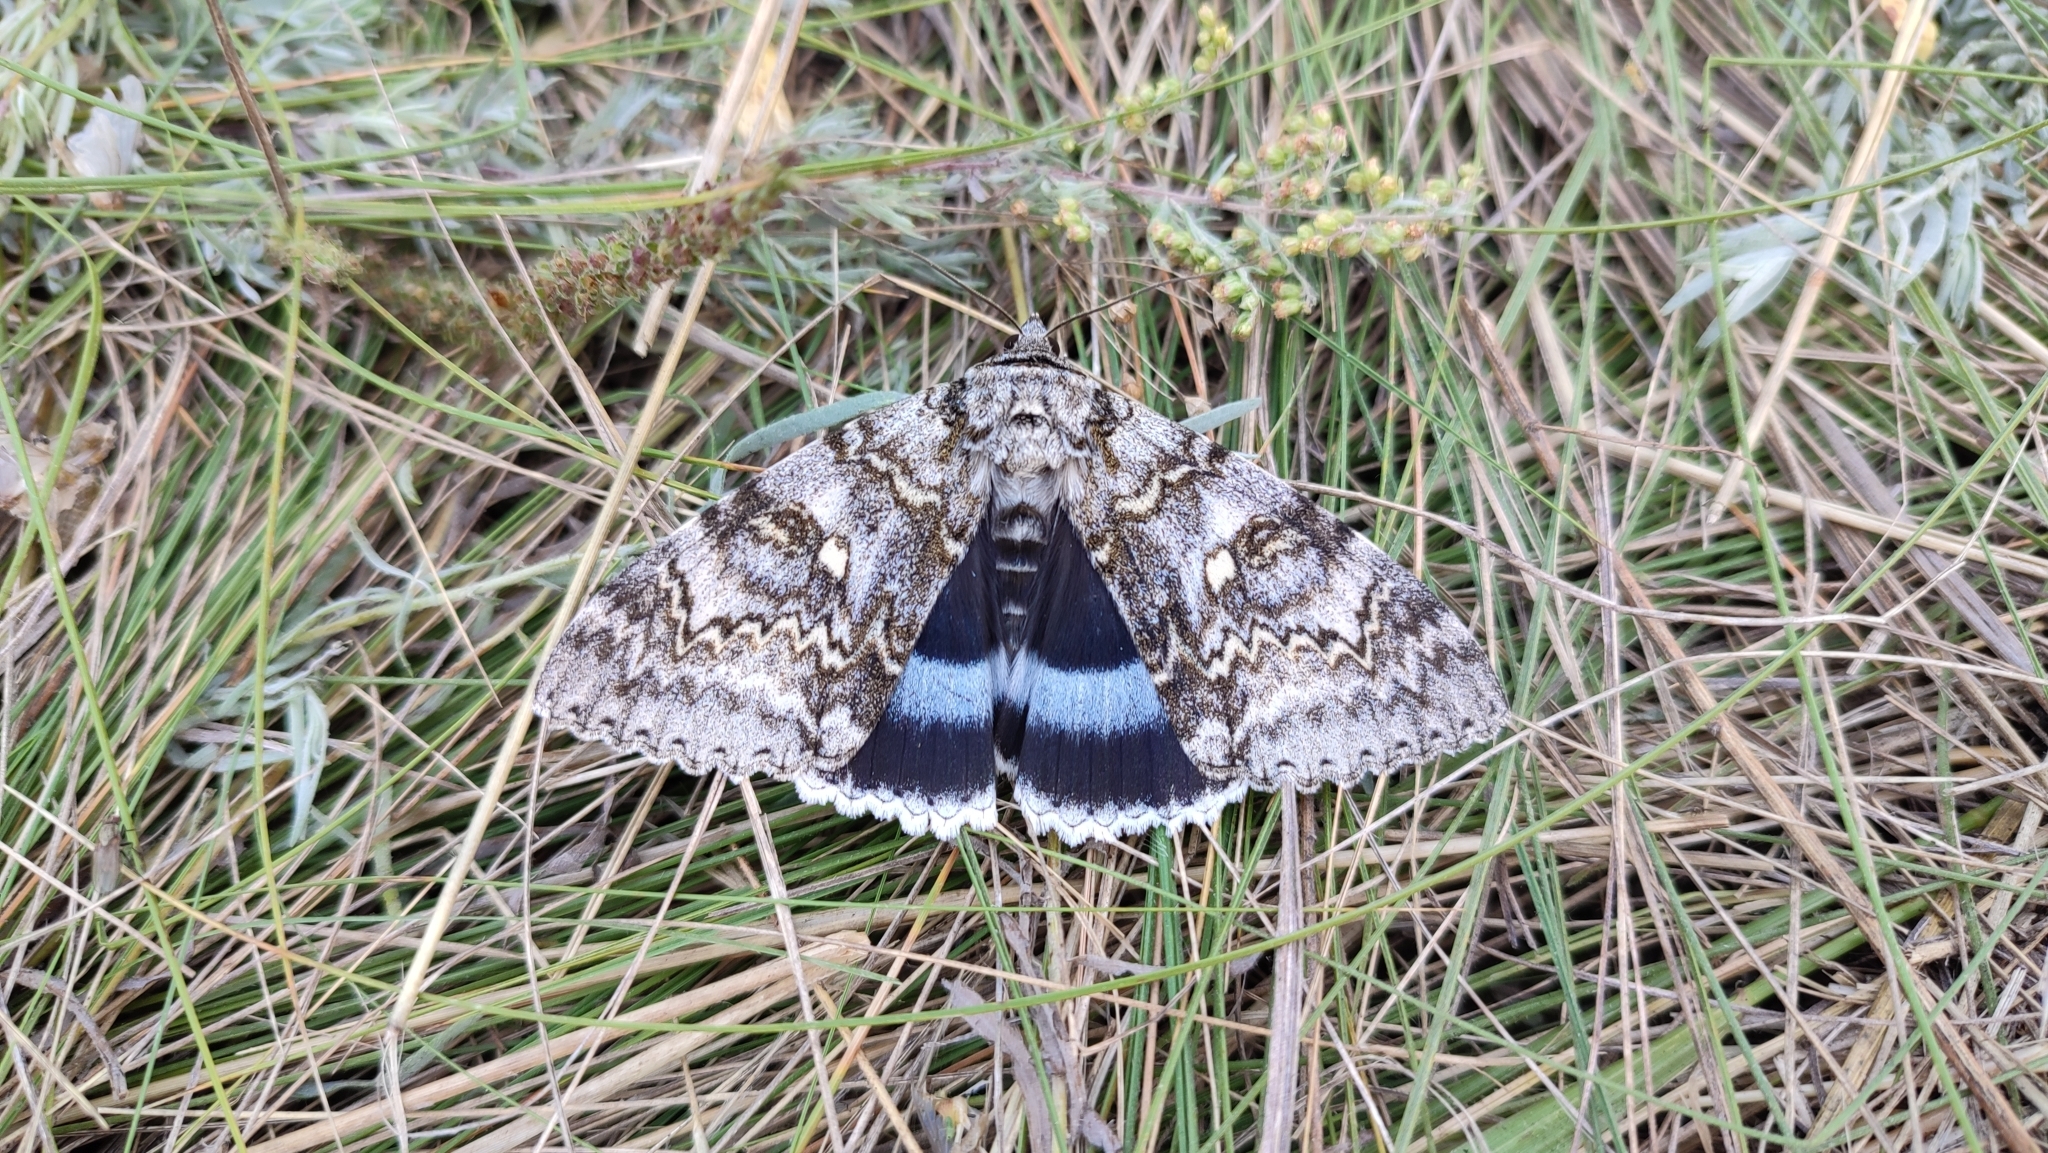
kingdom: Animalia
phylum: Arthropoda
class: Insecta
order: Lepidoptera
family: Erebidae
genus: Catocala
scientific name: Catocala fraxini
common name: Clifden nonpareil
